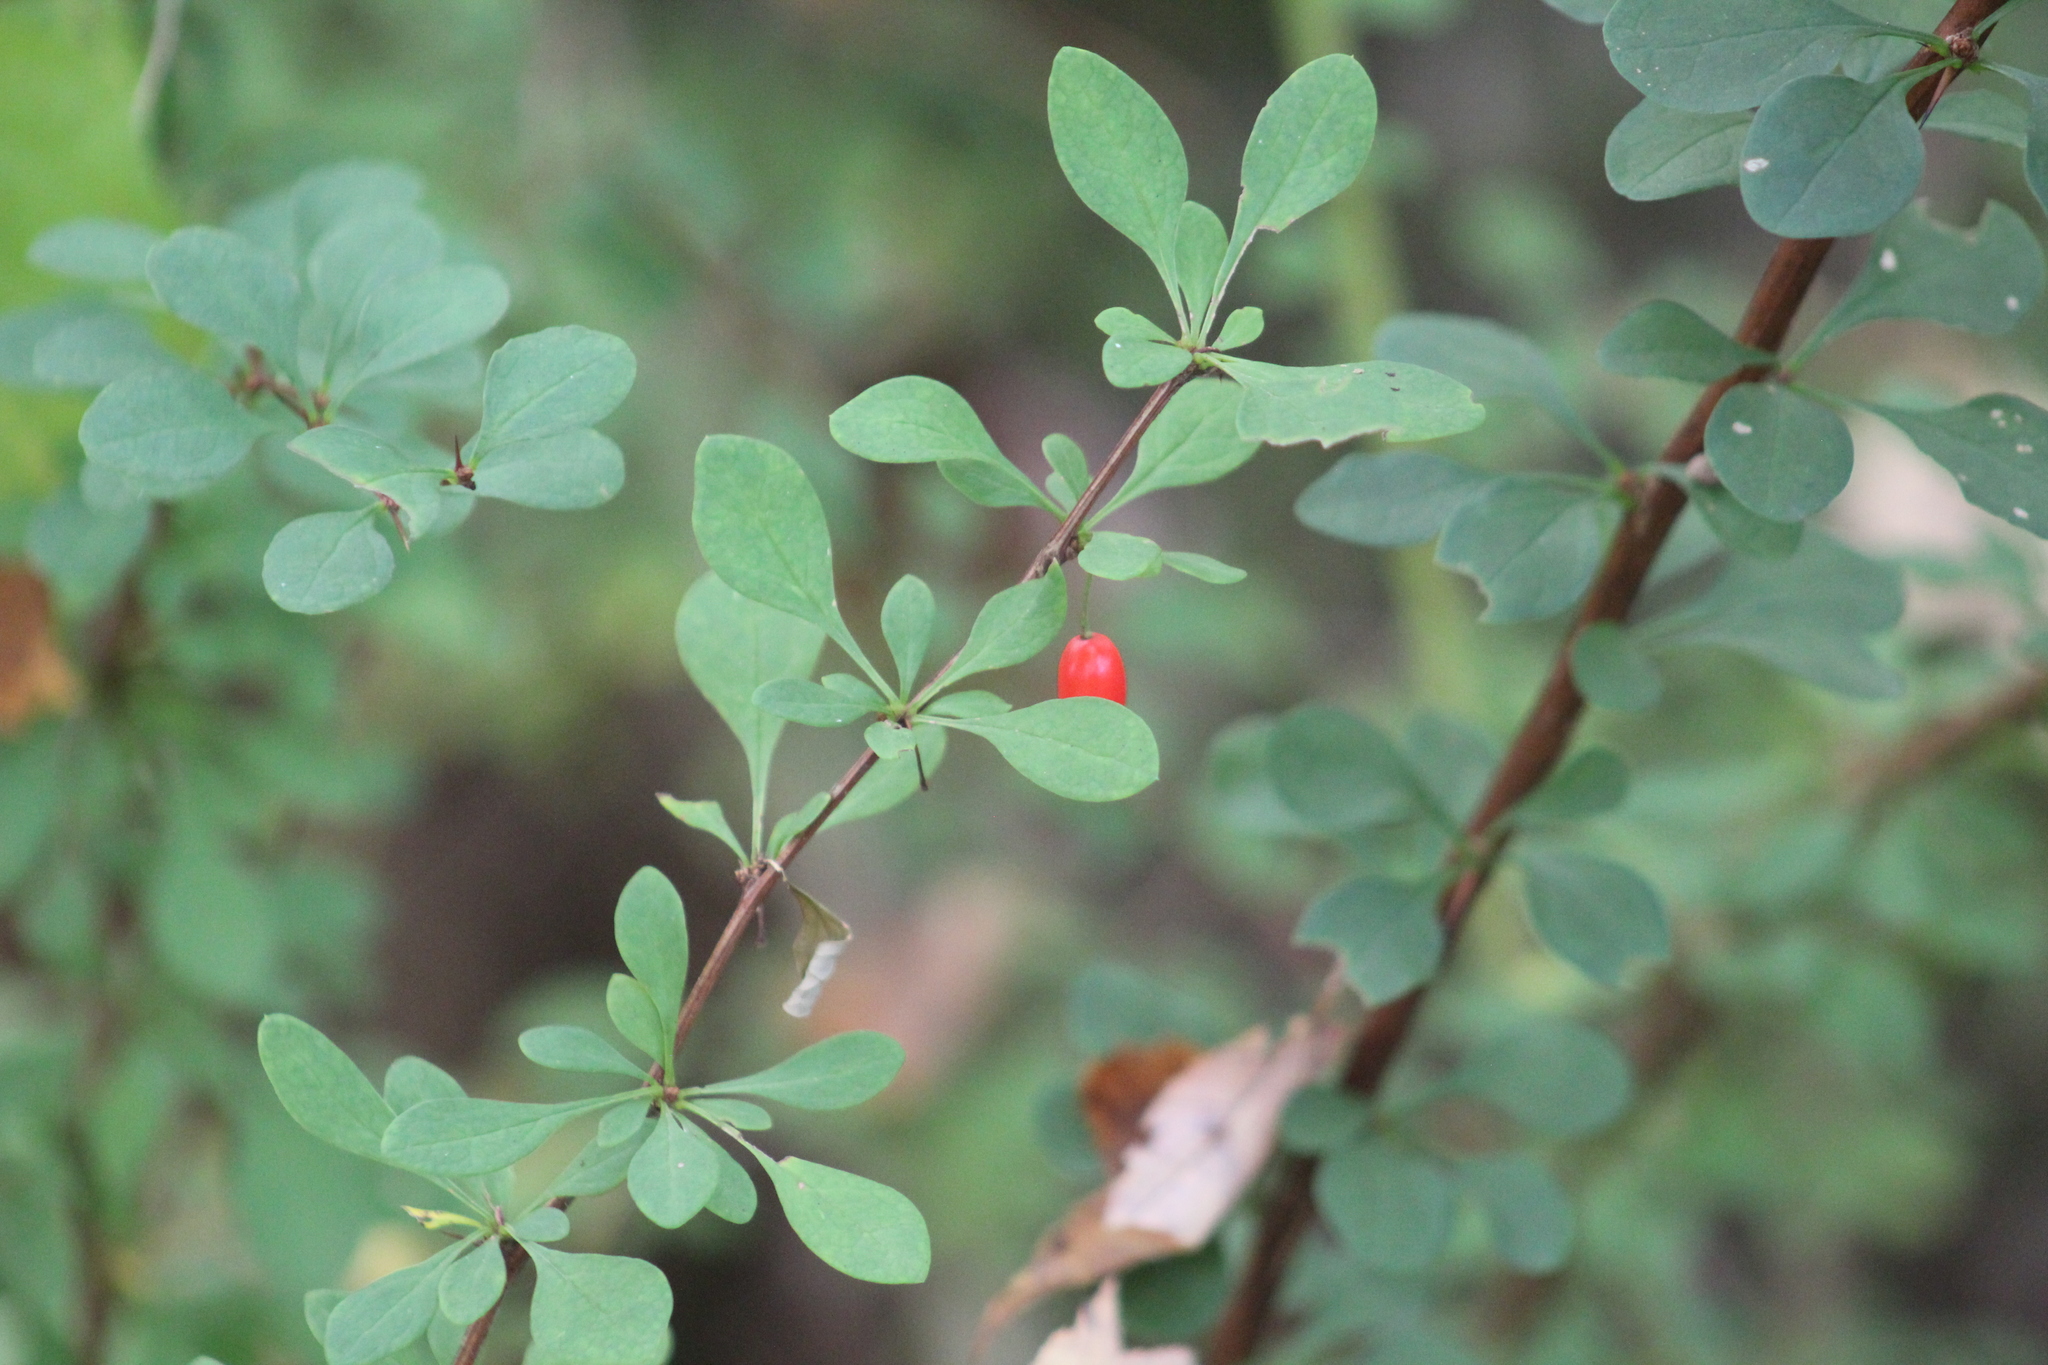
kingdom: Plantae
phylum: Tracheophyta
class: Magnoliopsida
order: Ranunculales
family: Berberidaceae
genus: Berberis
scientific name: Berberis thunbergii
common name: Japanese barberry
